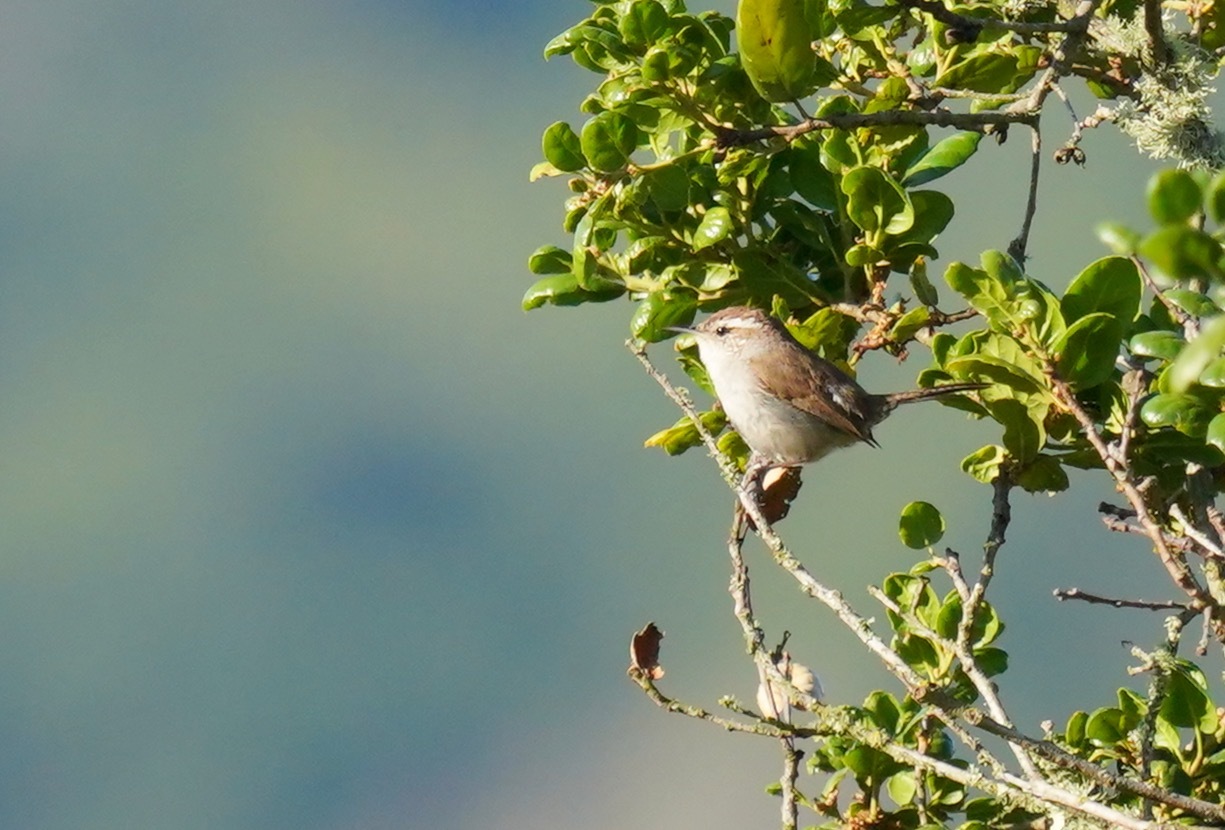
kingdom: Animalia
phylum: Chordata
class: Aves
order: Passeriformes
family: Troglodytidae
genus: Thryomanes
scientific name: Thryomanes bewickii
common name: Bewick's wren
